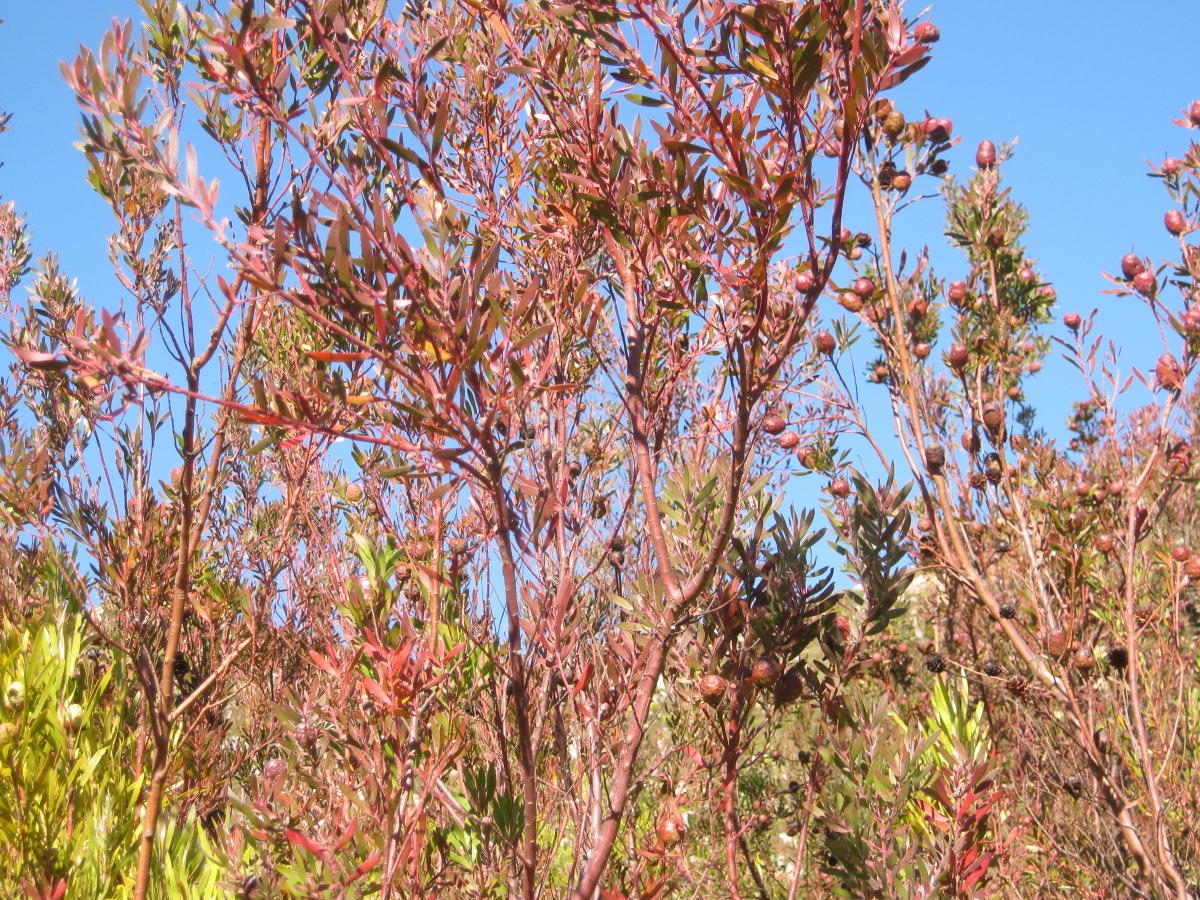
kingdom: Plantae
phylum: Tracheophyta
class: Magnoliopsida
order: Proteales
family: Proteaceae
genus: Leucadendron
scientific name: Leucadendron conicum
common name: Garden route conebush
